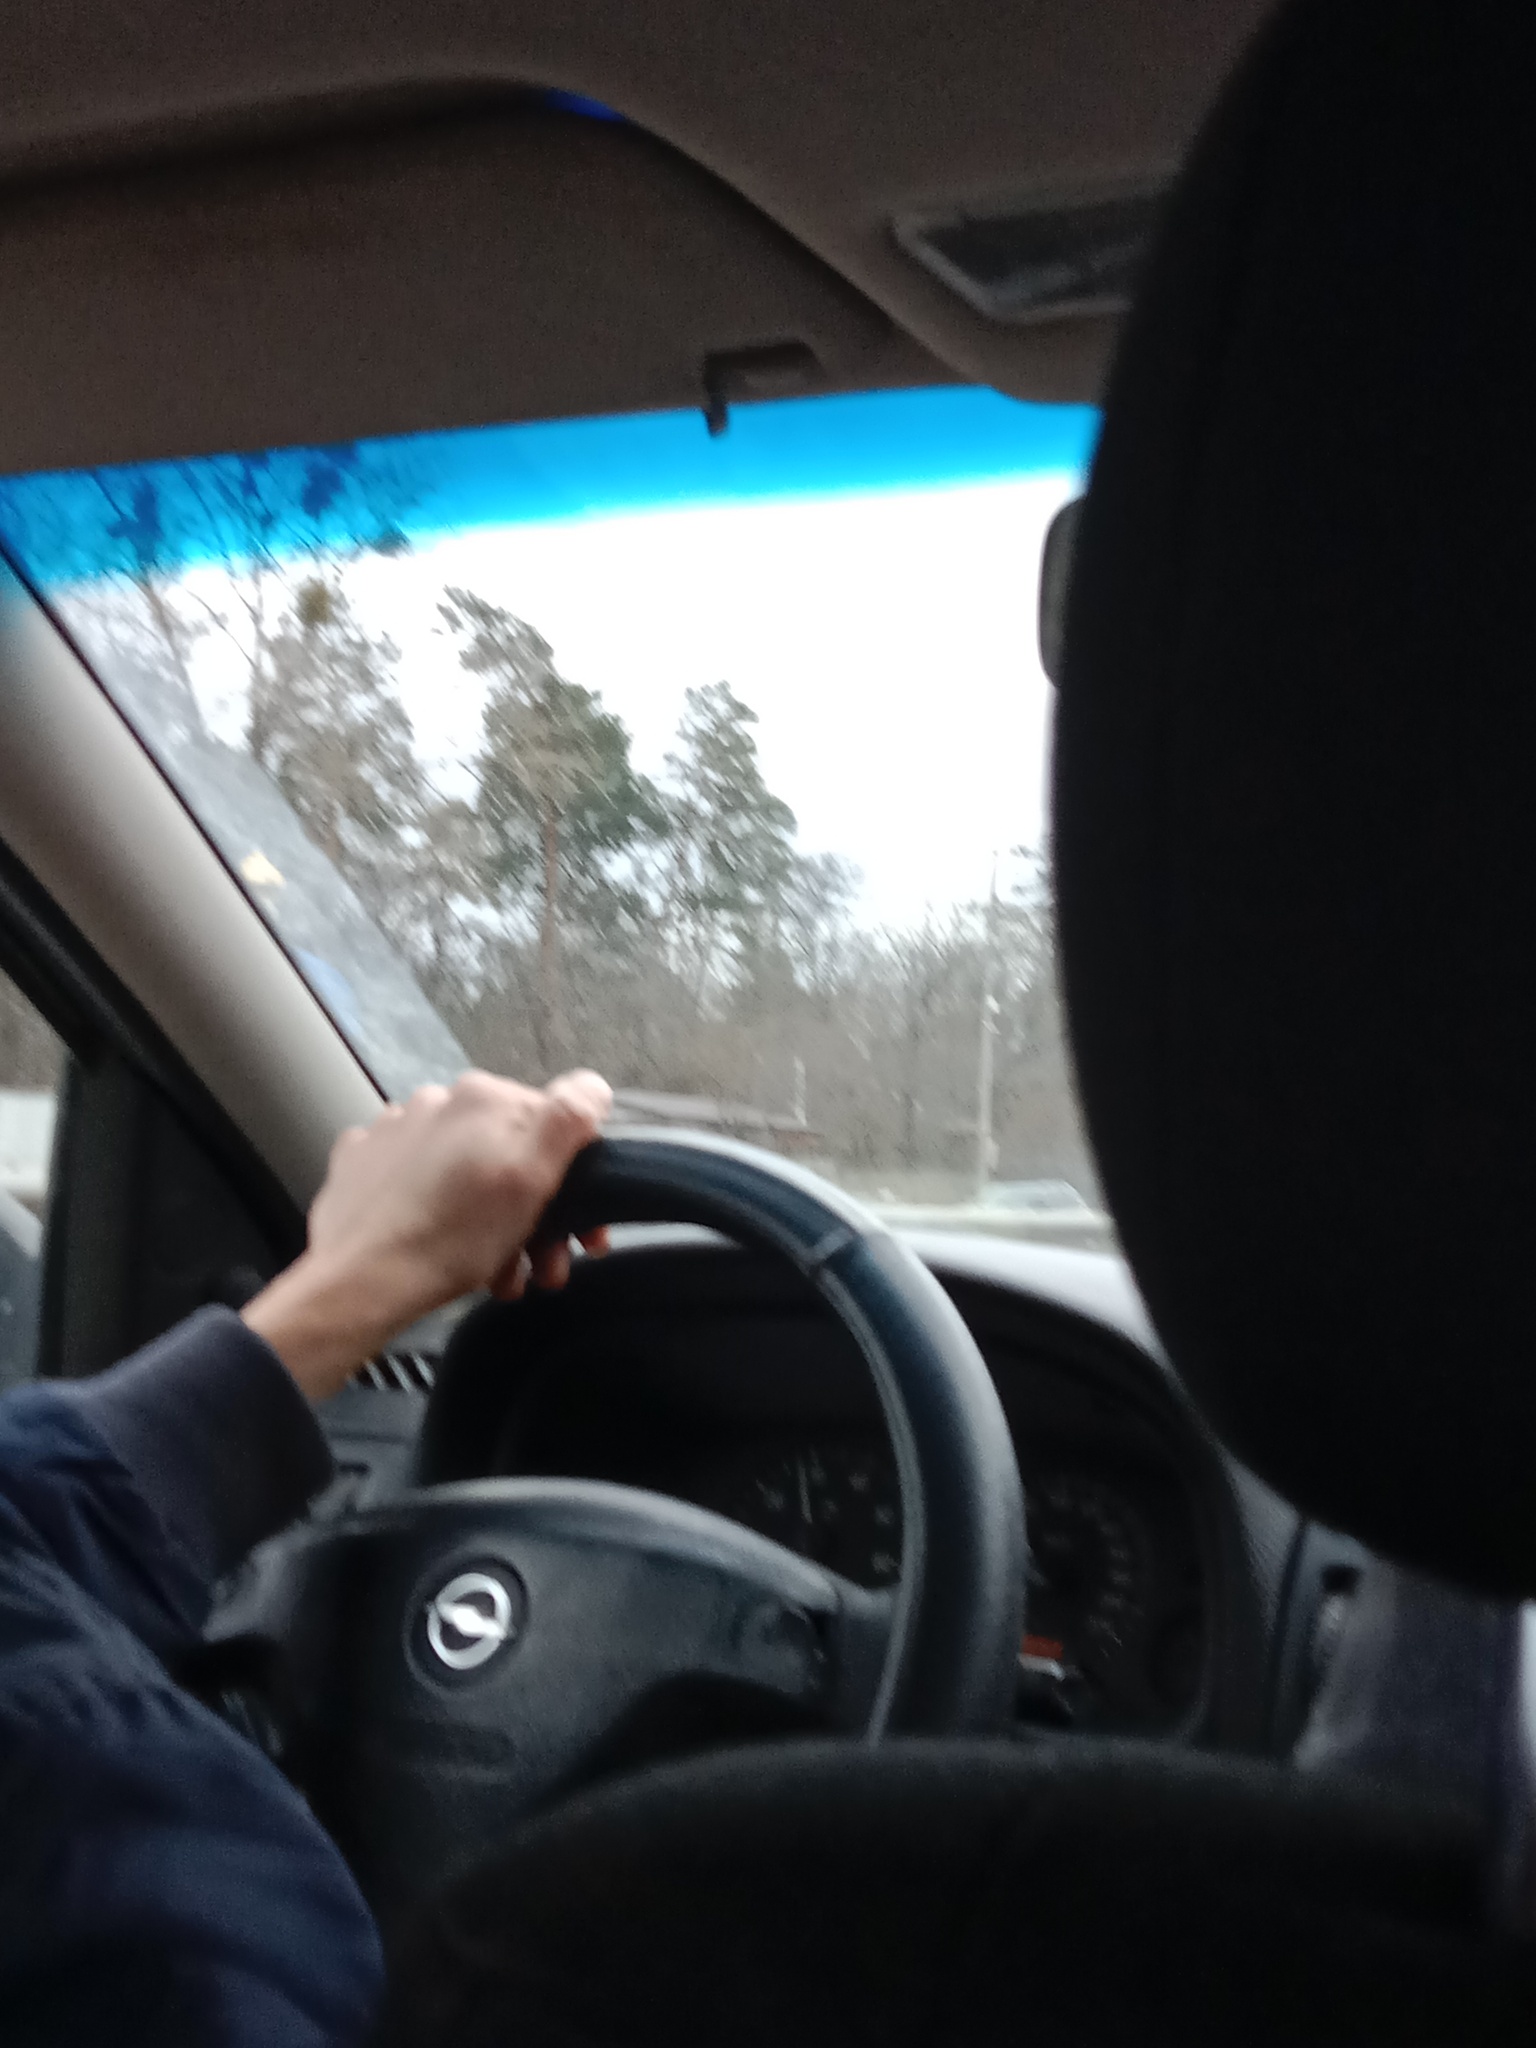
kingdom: Plantae
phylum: Tracheophyta
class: Magnoliopsida
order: Santalales
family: Viscaceae
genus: Viscum
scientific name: Viscum album
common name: Mistletoe
